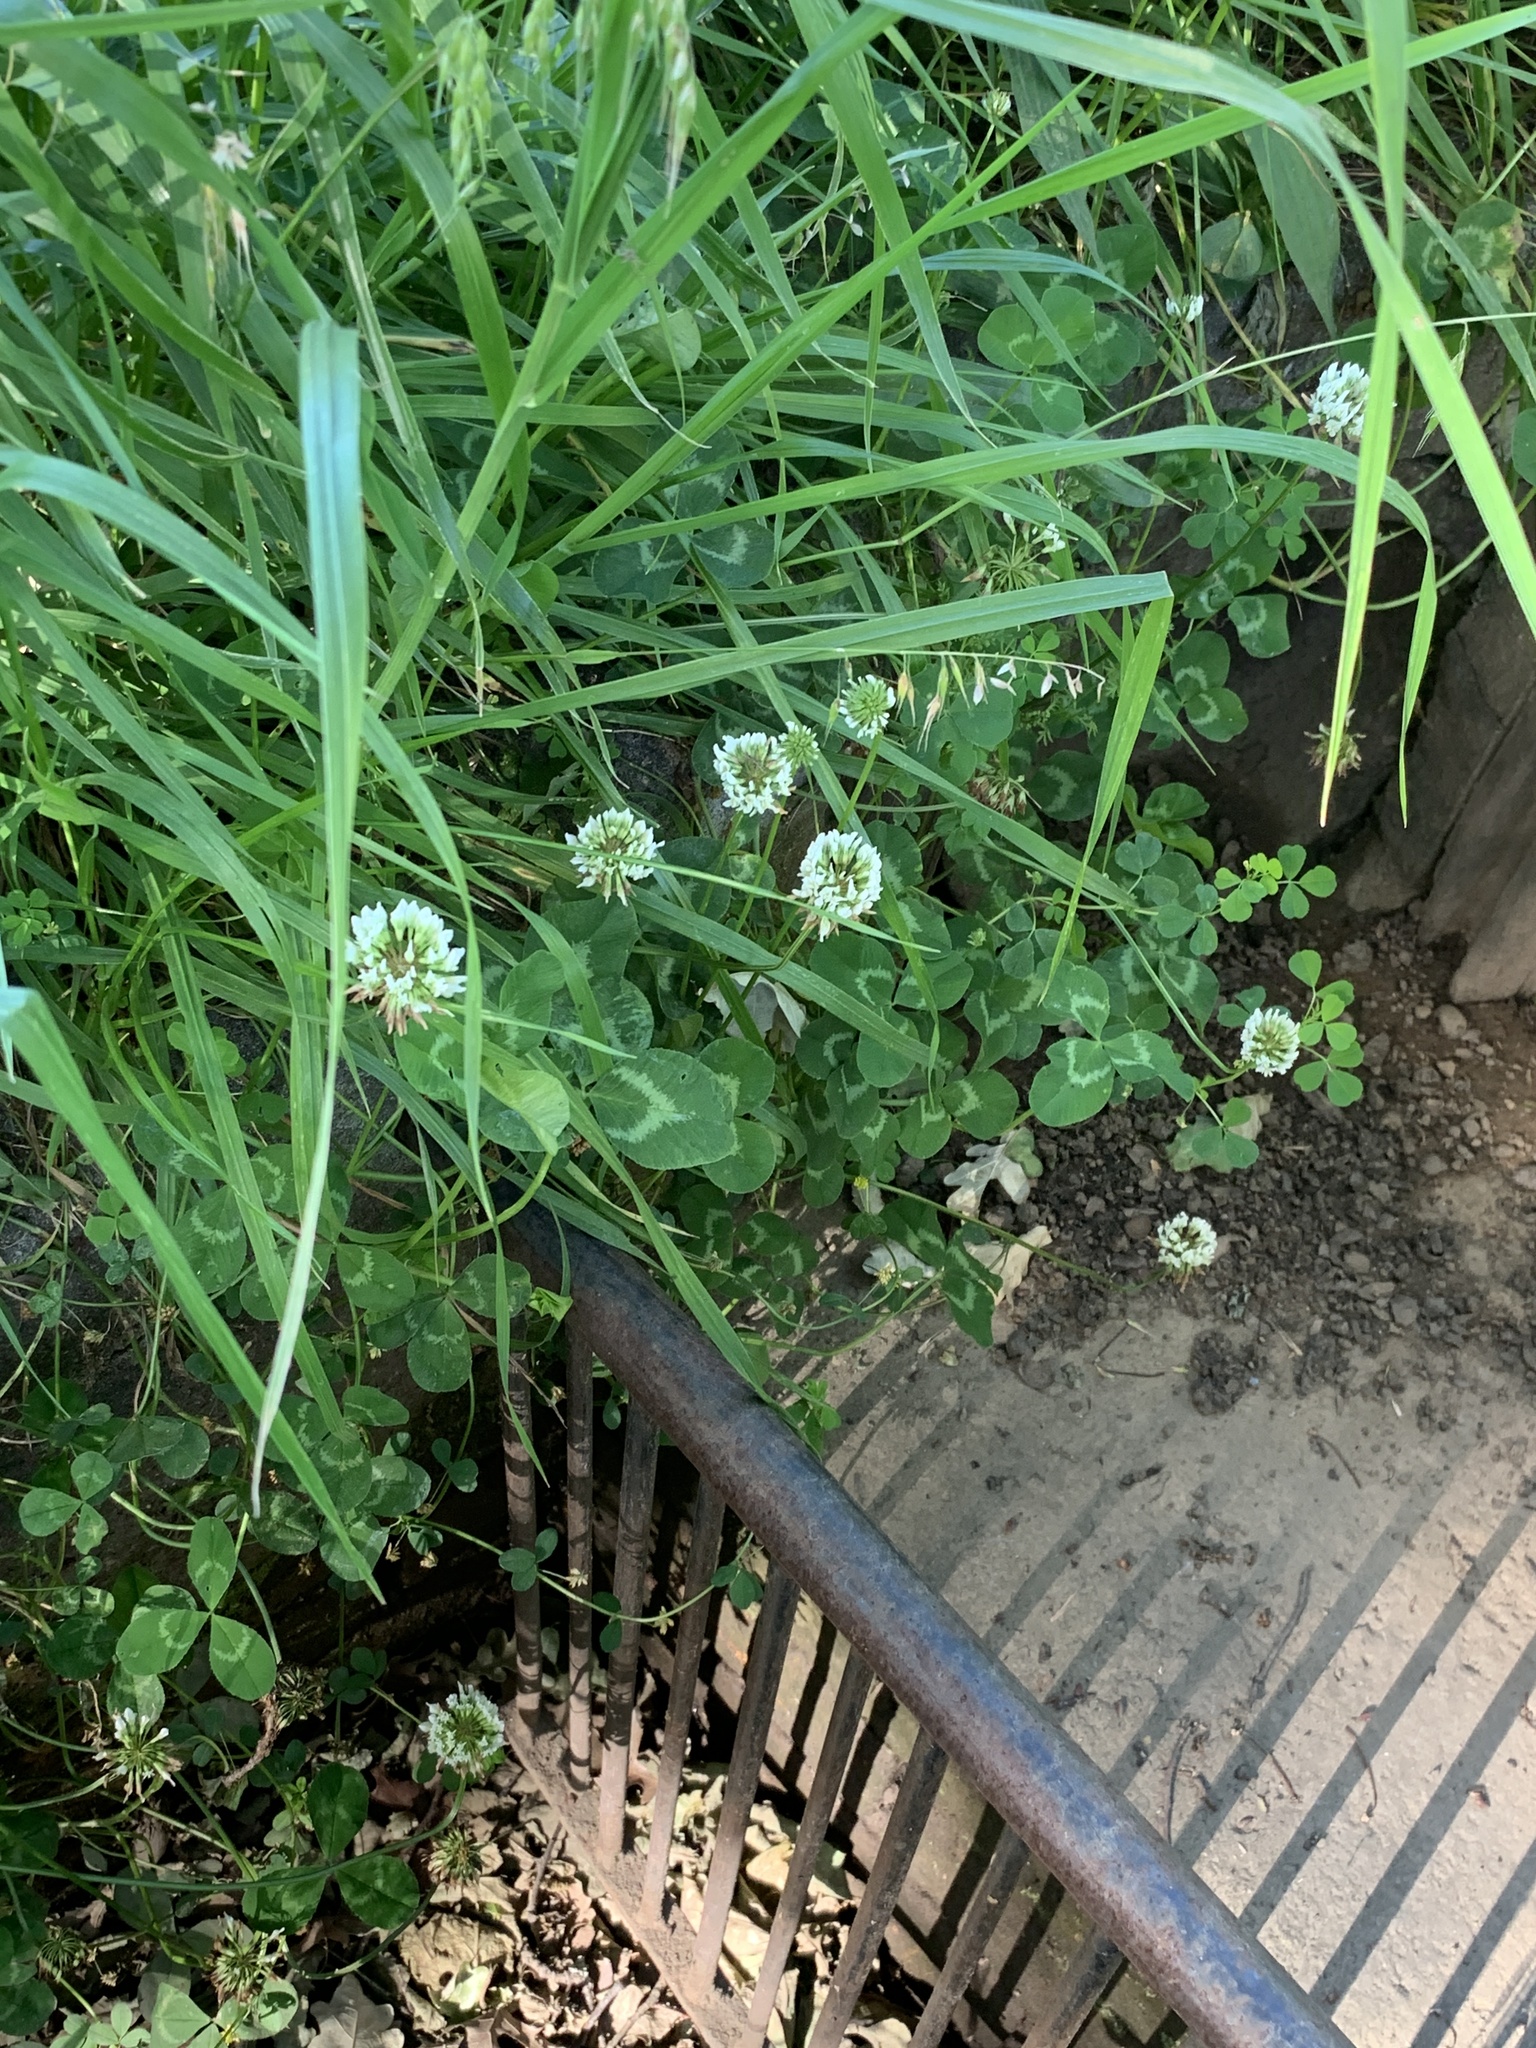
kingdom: Plantae
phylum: Tracheophyta
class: Magnoliopsida
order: Fabales
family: Fabaceae
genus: Trifolium
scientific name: Trifolium repens
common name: White clover
